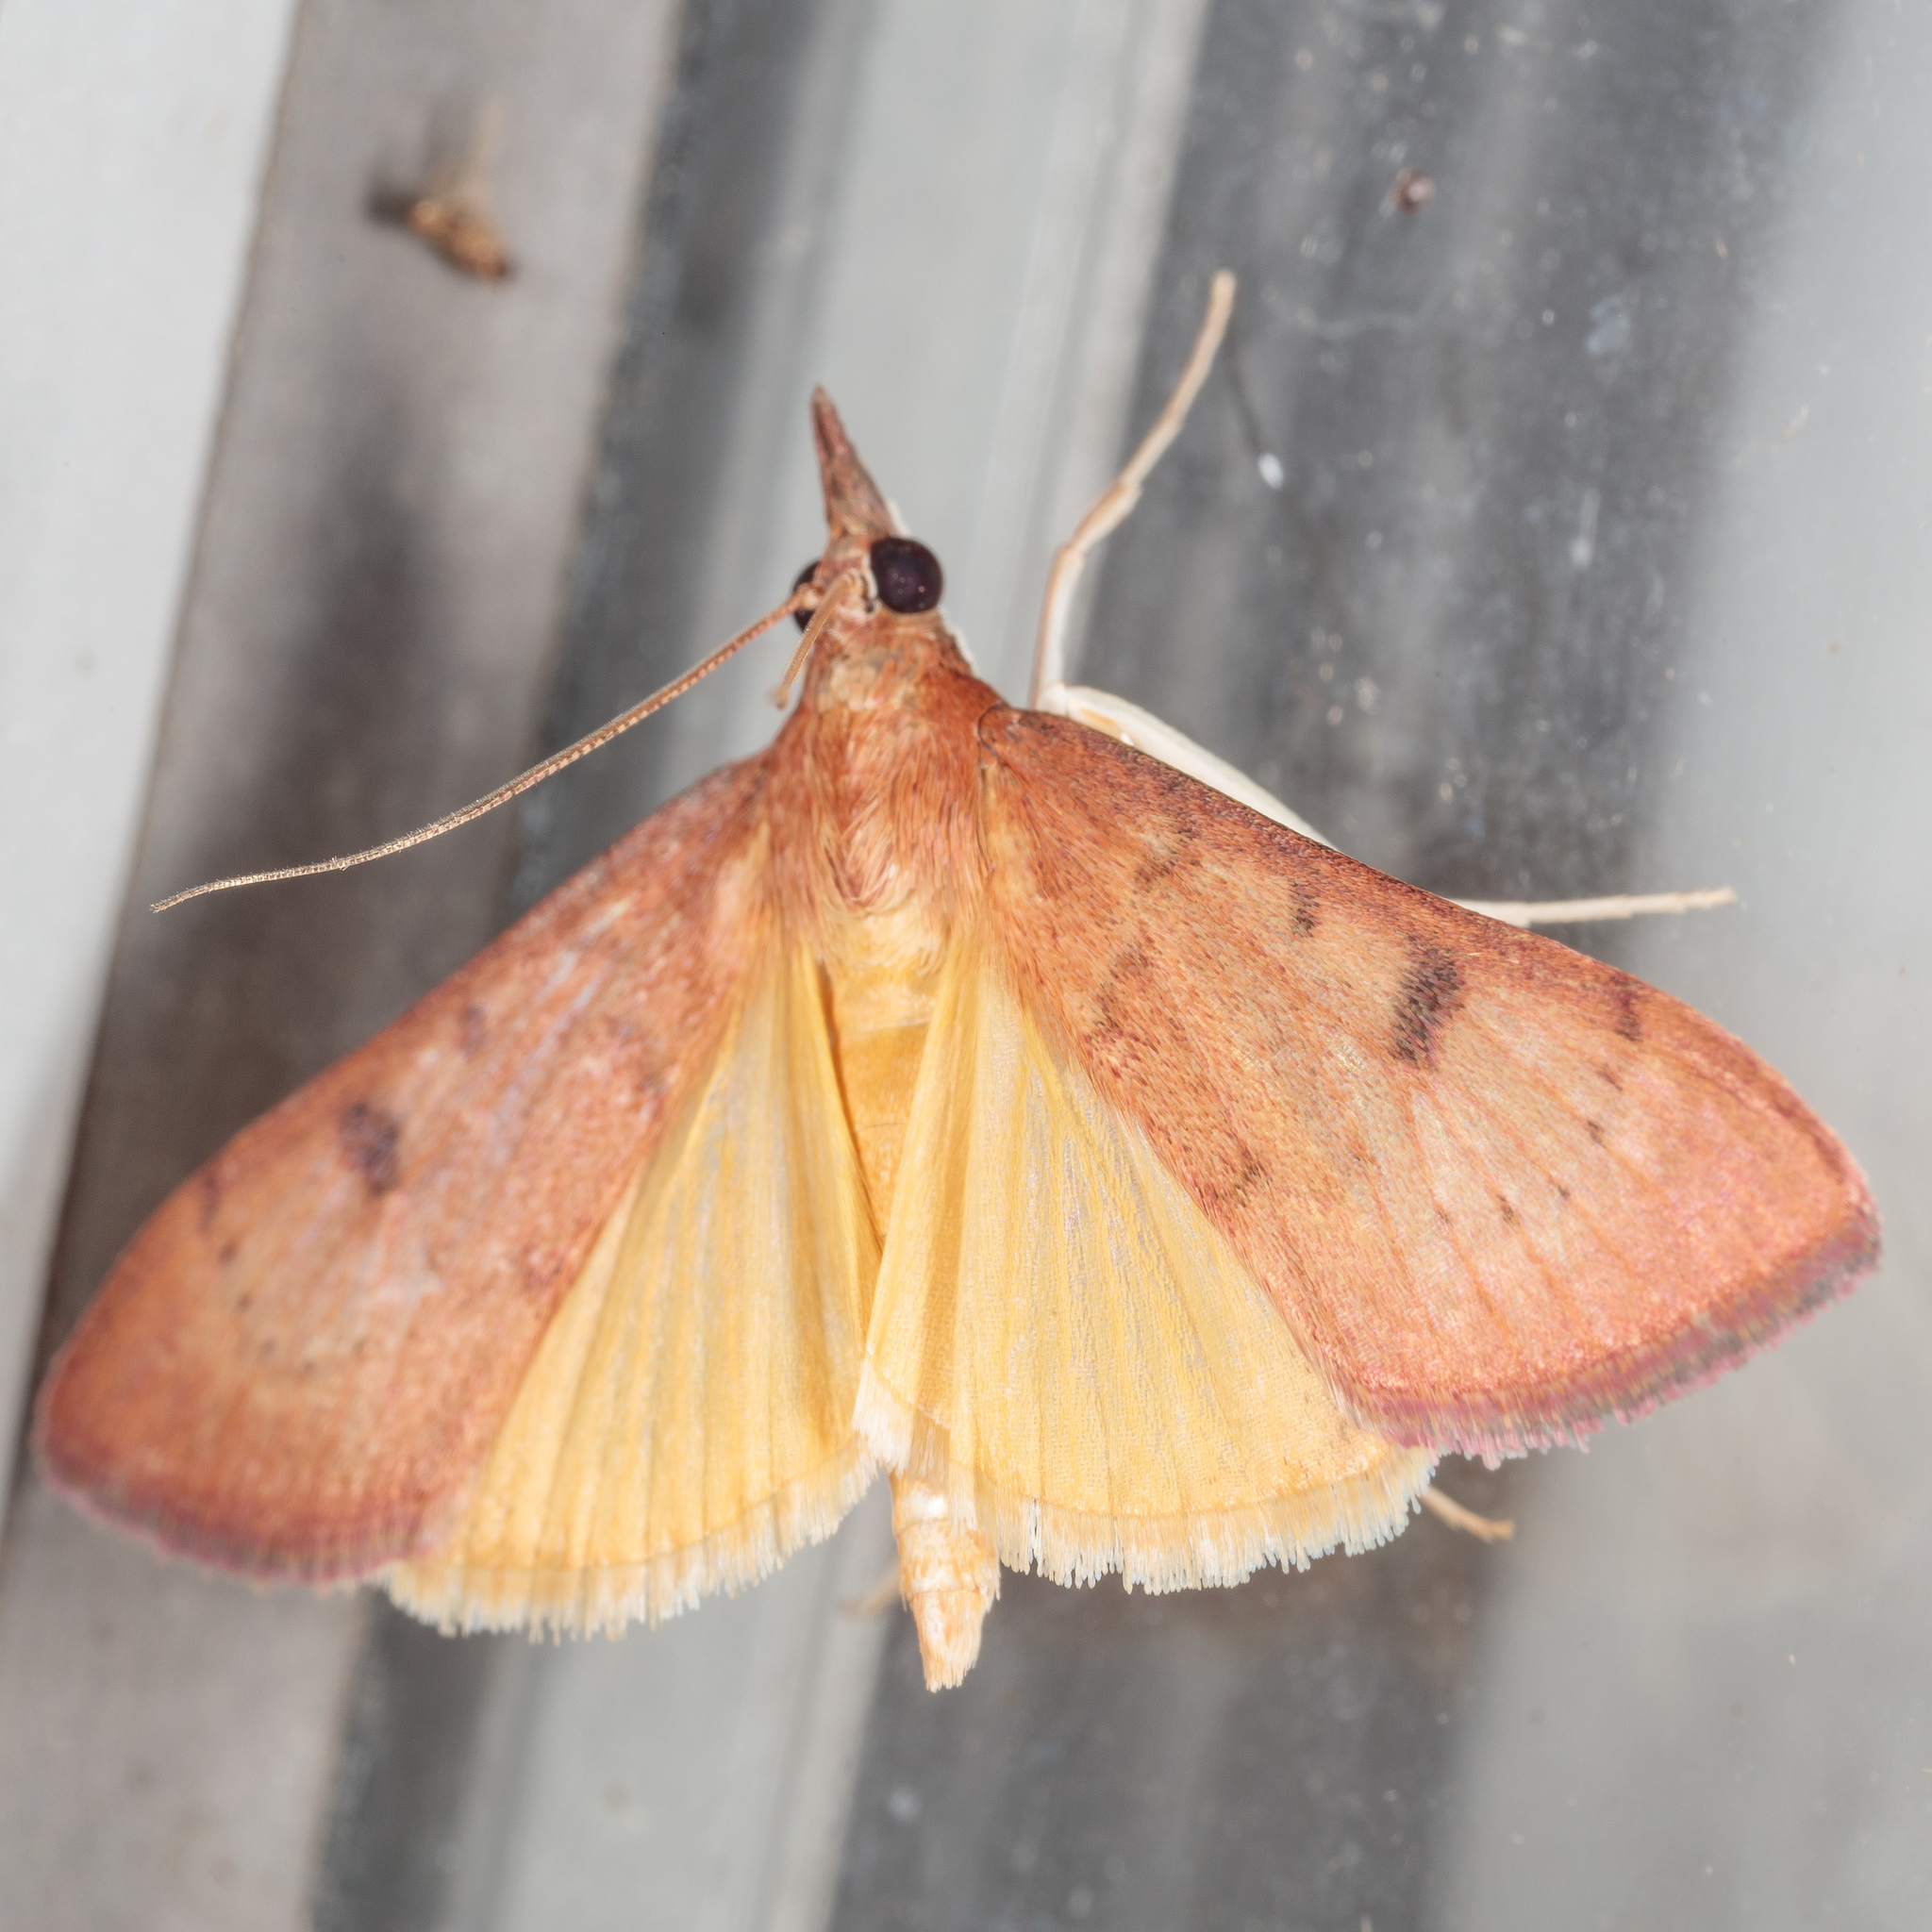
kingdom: Animalia
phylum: Arthropoda
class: Insecta
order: Lepidoptera
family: Crambidae
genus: Uresiphita
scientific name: Uresiphita reversalis
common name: Genista broom moth
